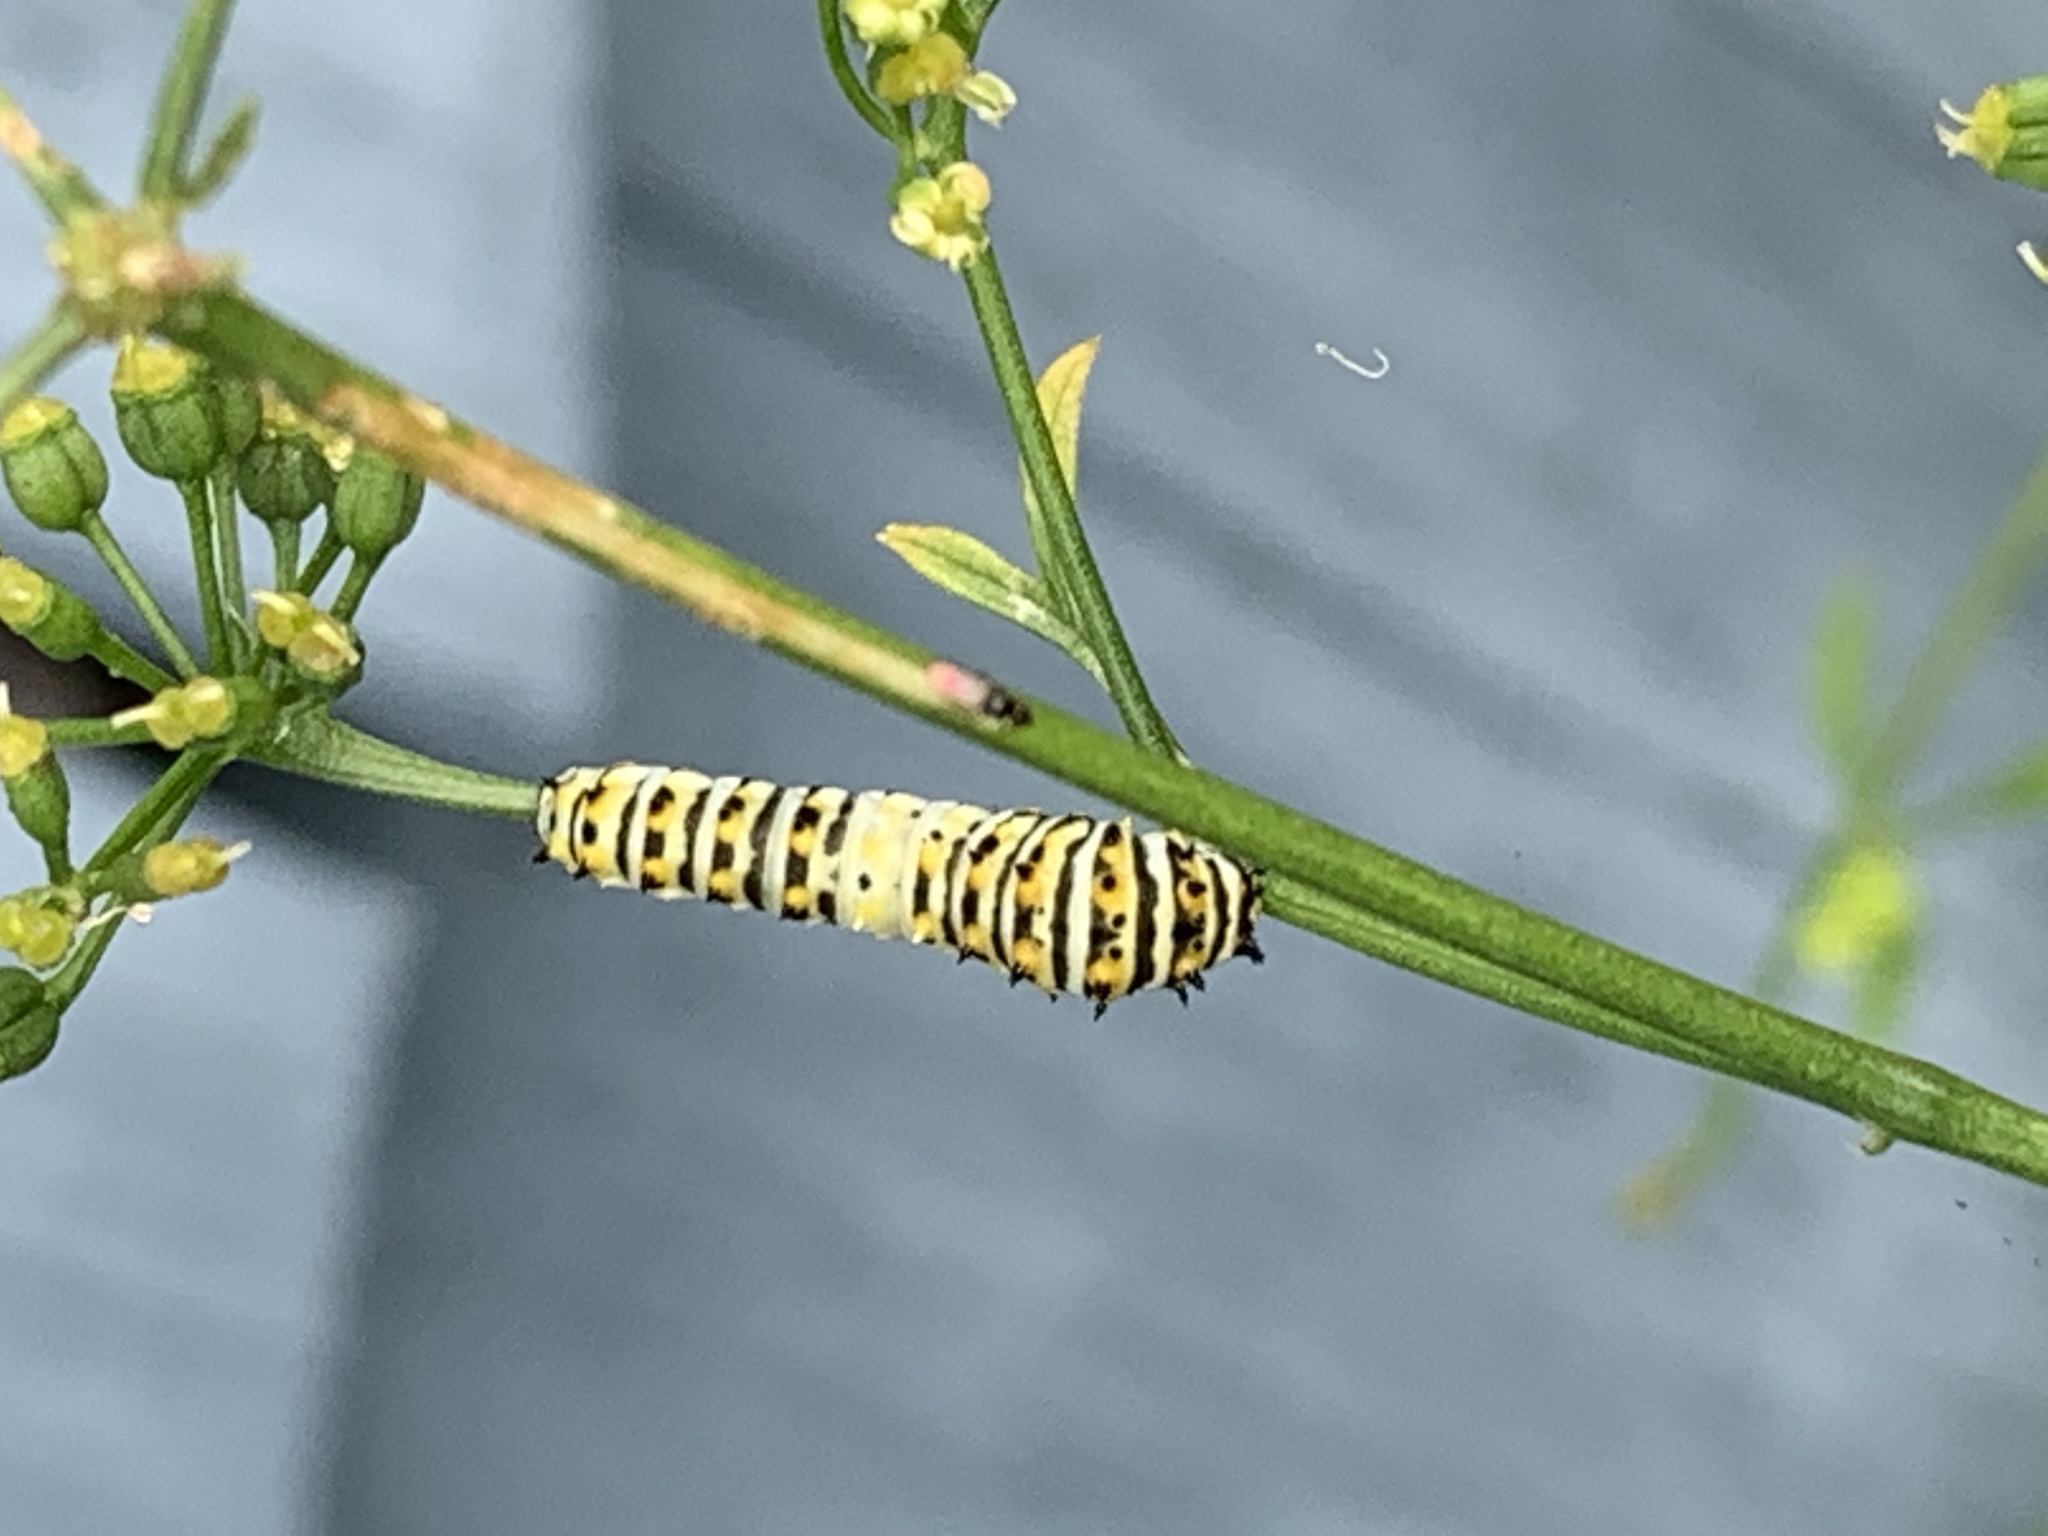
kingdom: Animalia
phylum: Arthropoda
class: Insecta
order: Lepidoptera
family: Papilionidae
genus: Papilio
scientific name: Papilio polyxenes
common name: Black swallowtail
